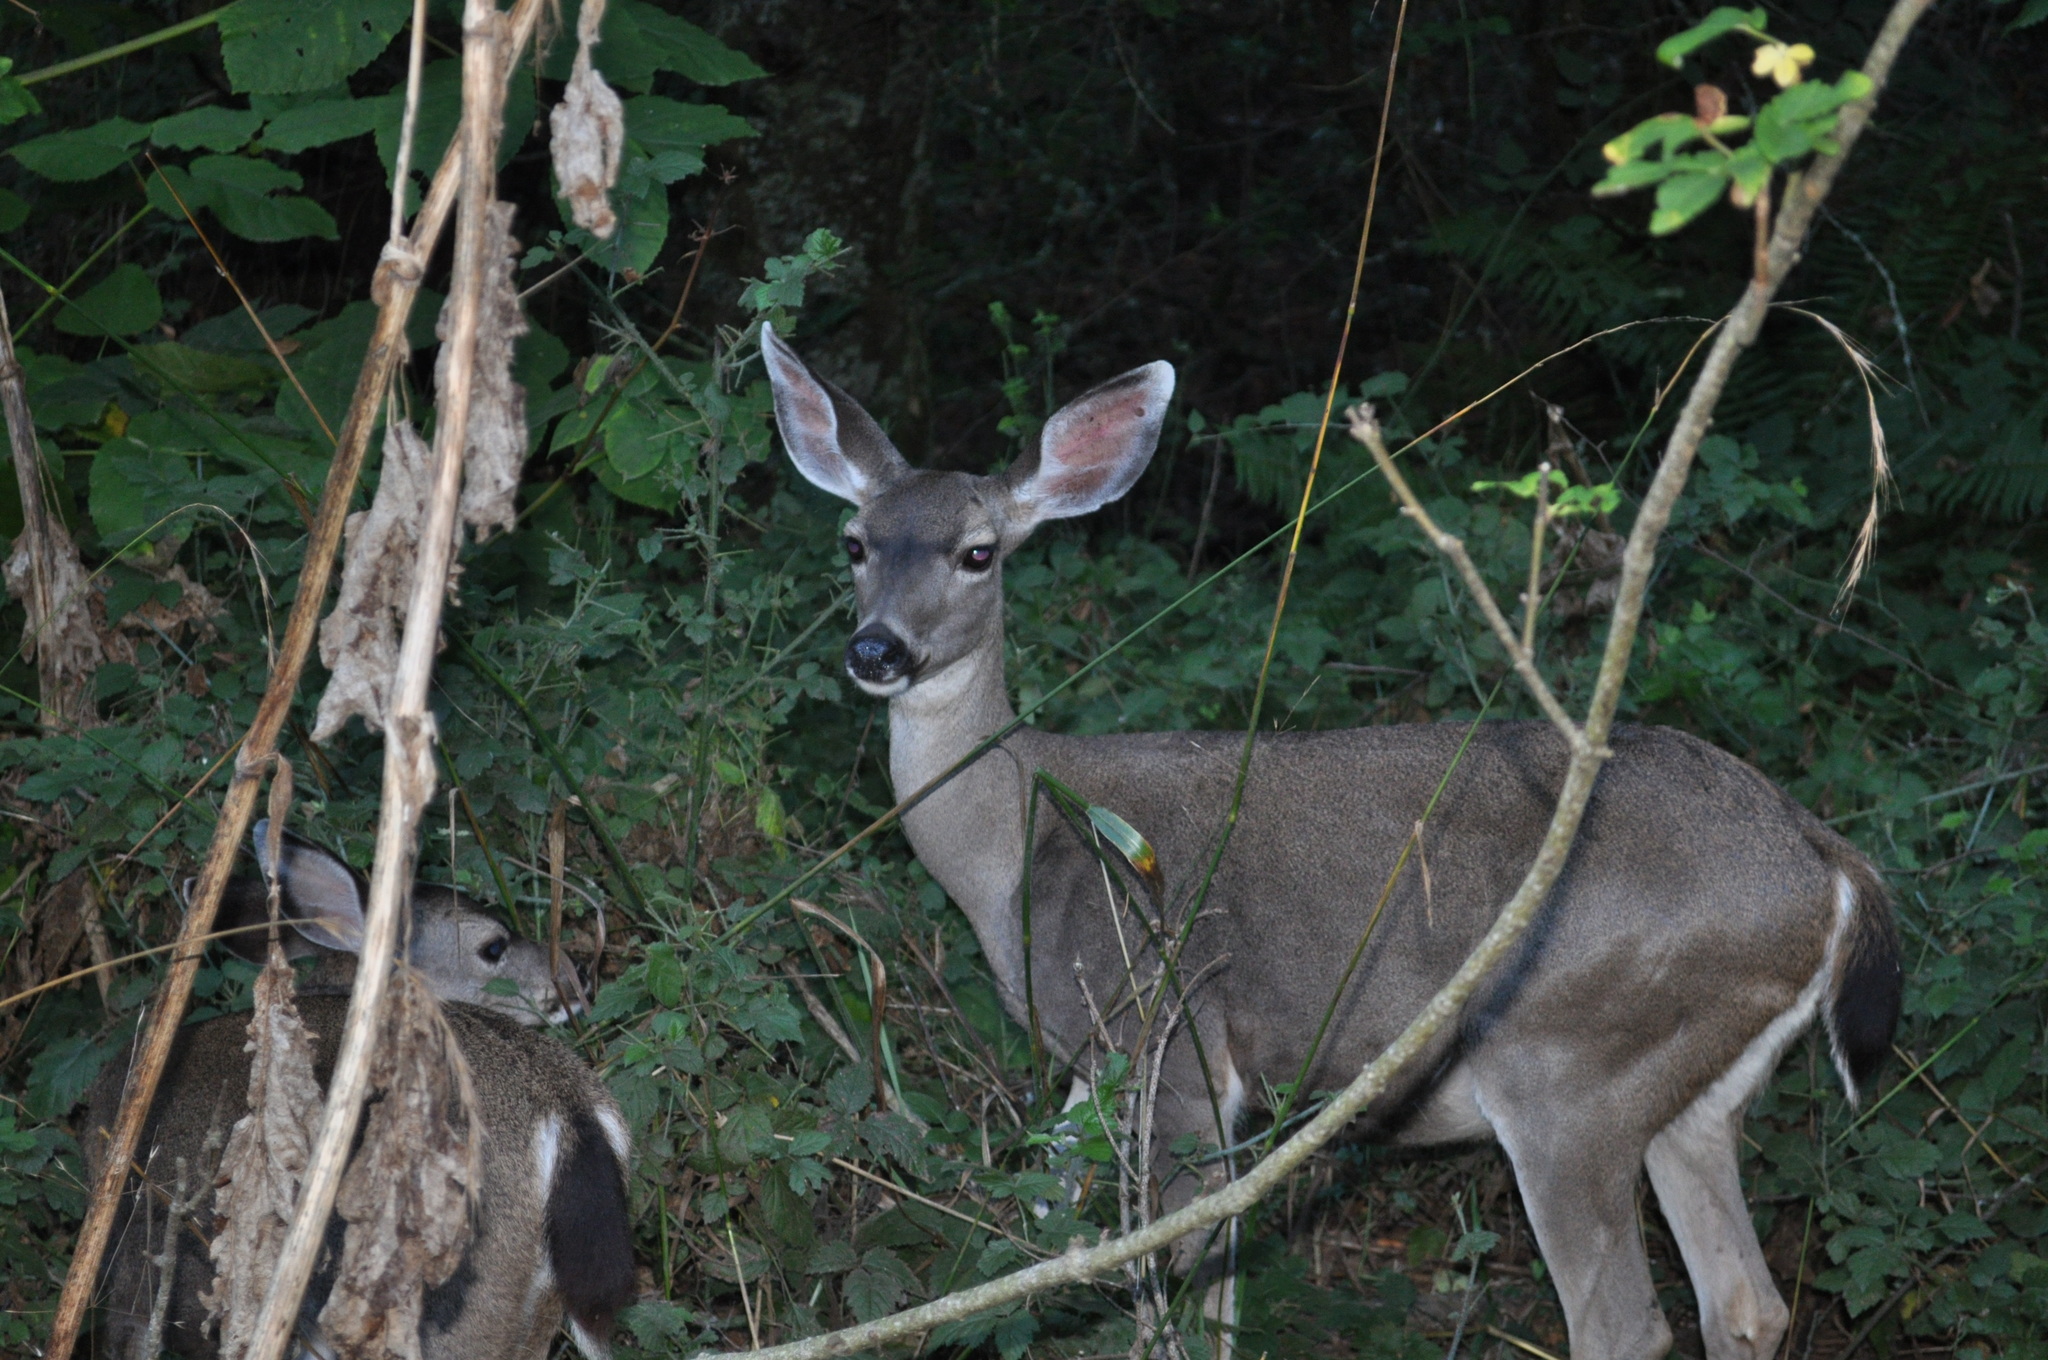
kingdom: Animalia
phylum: Chordata
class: Mammalia
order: Artiodactyla
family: Cervidae
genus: Odocoileus
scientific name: Odocoileus hemionus
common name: Mule deer
